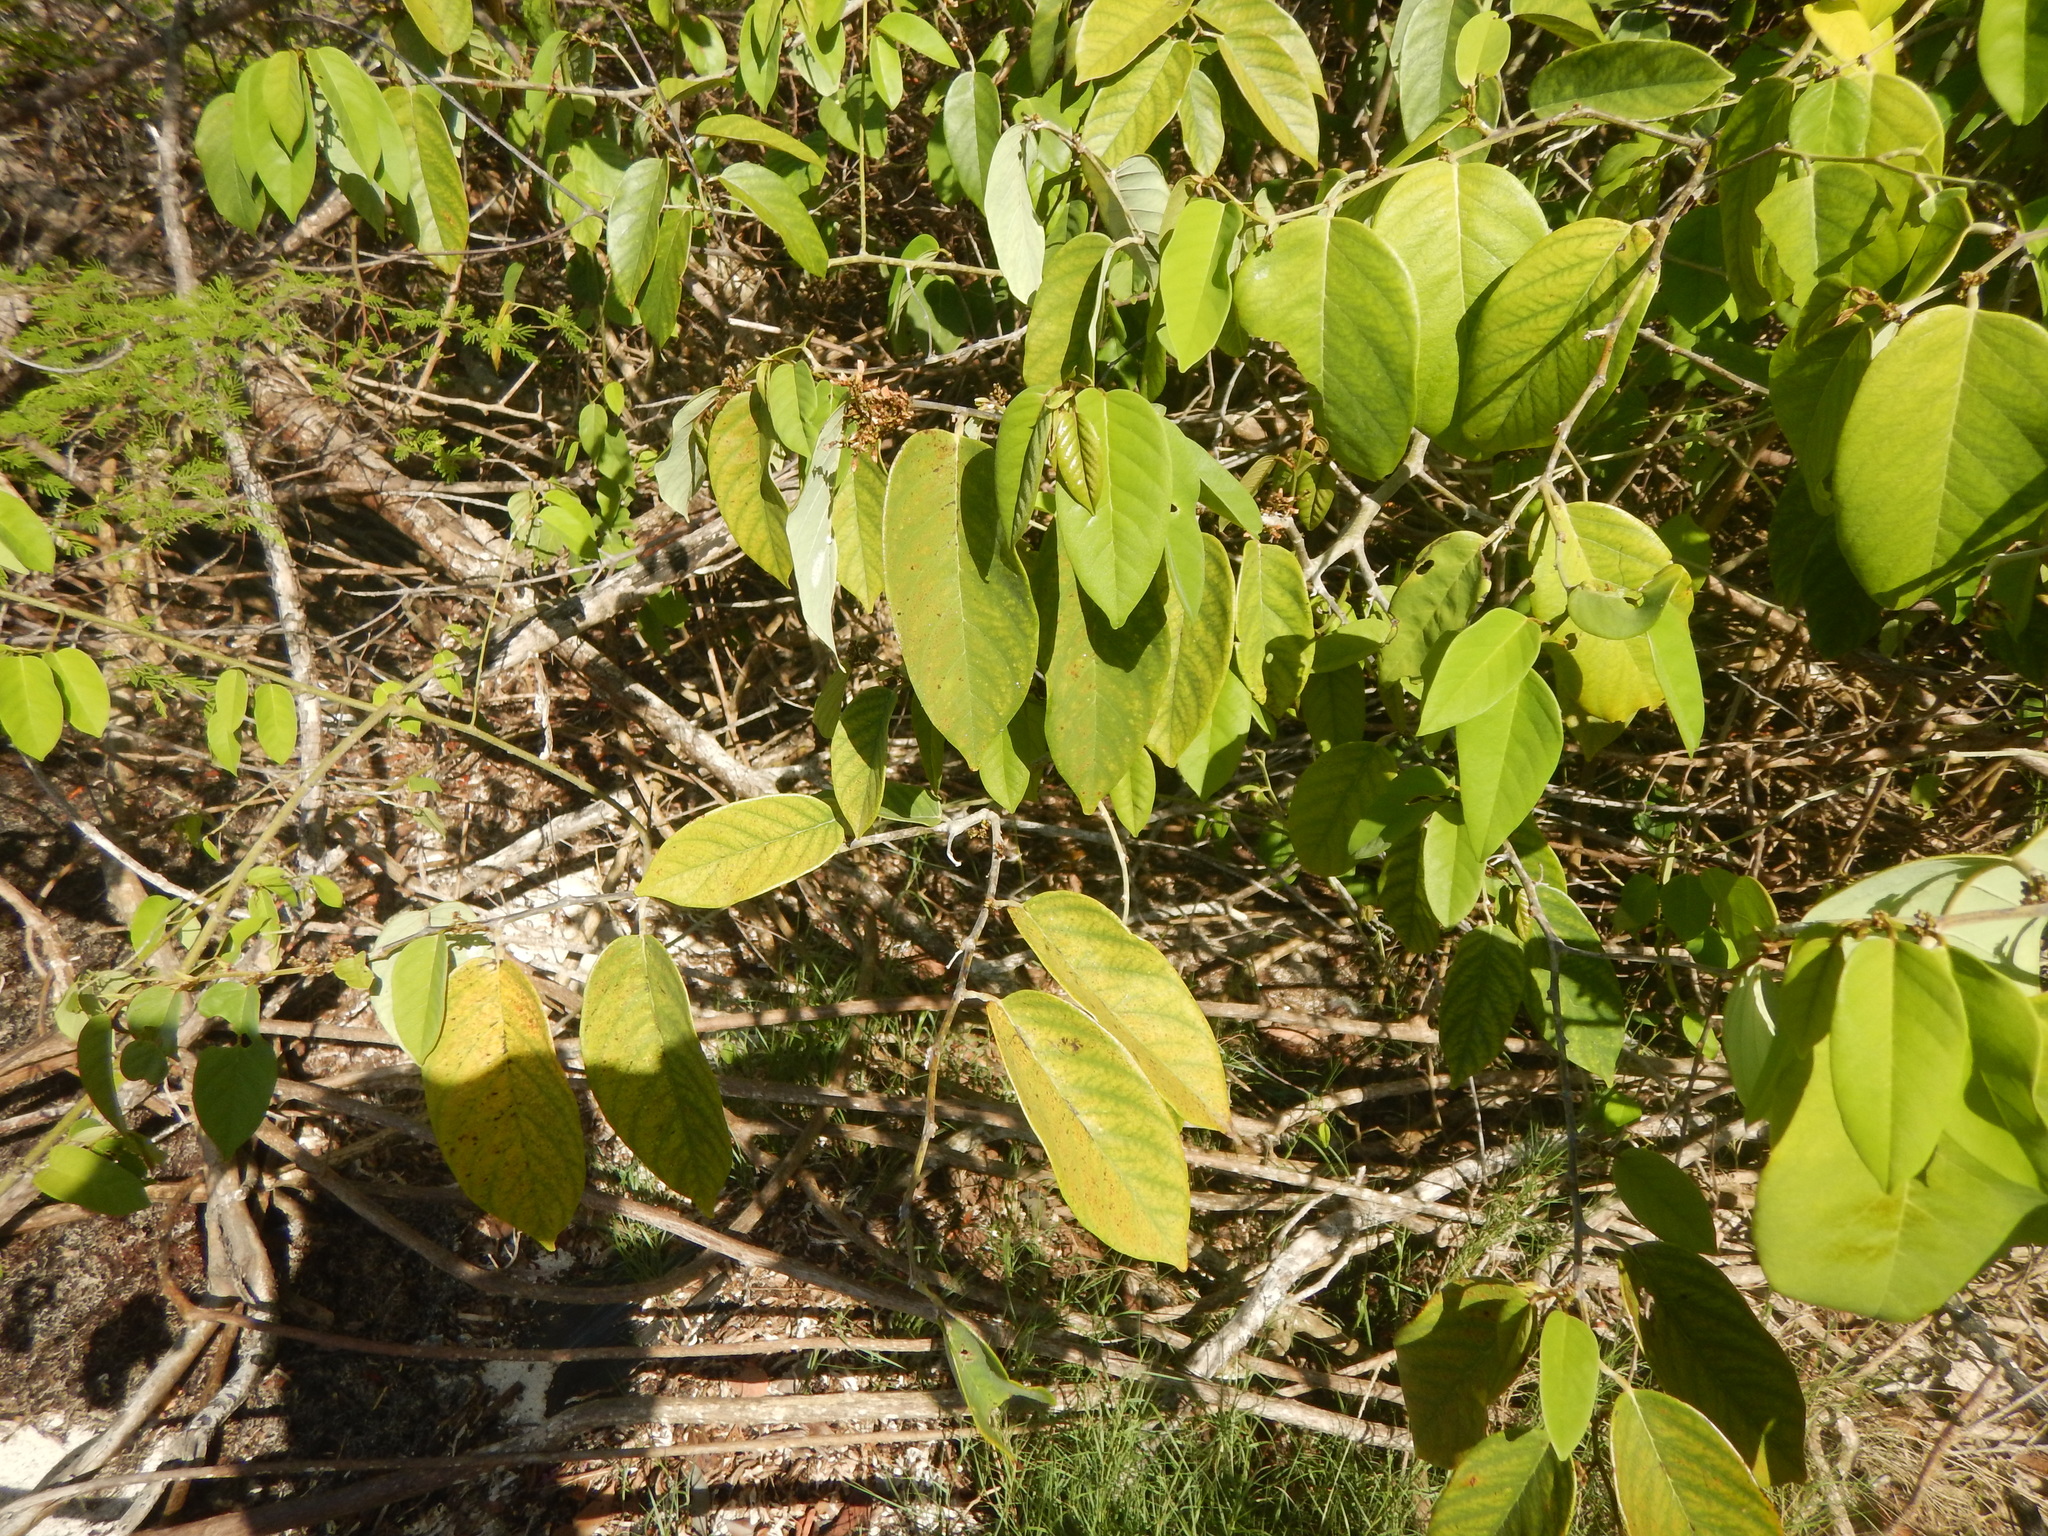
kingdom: Plantae
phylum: Tracheophyta
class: Magnoliopsida
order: Fabales
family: Fabaceae
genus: Dalbergia
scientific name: Dalbergia ecastaphyllum
